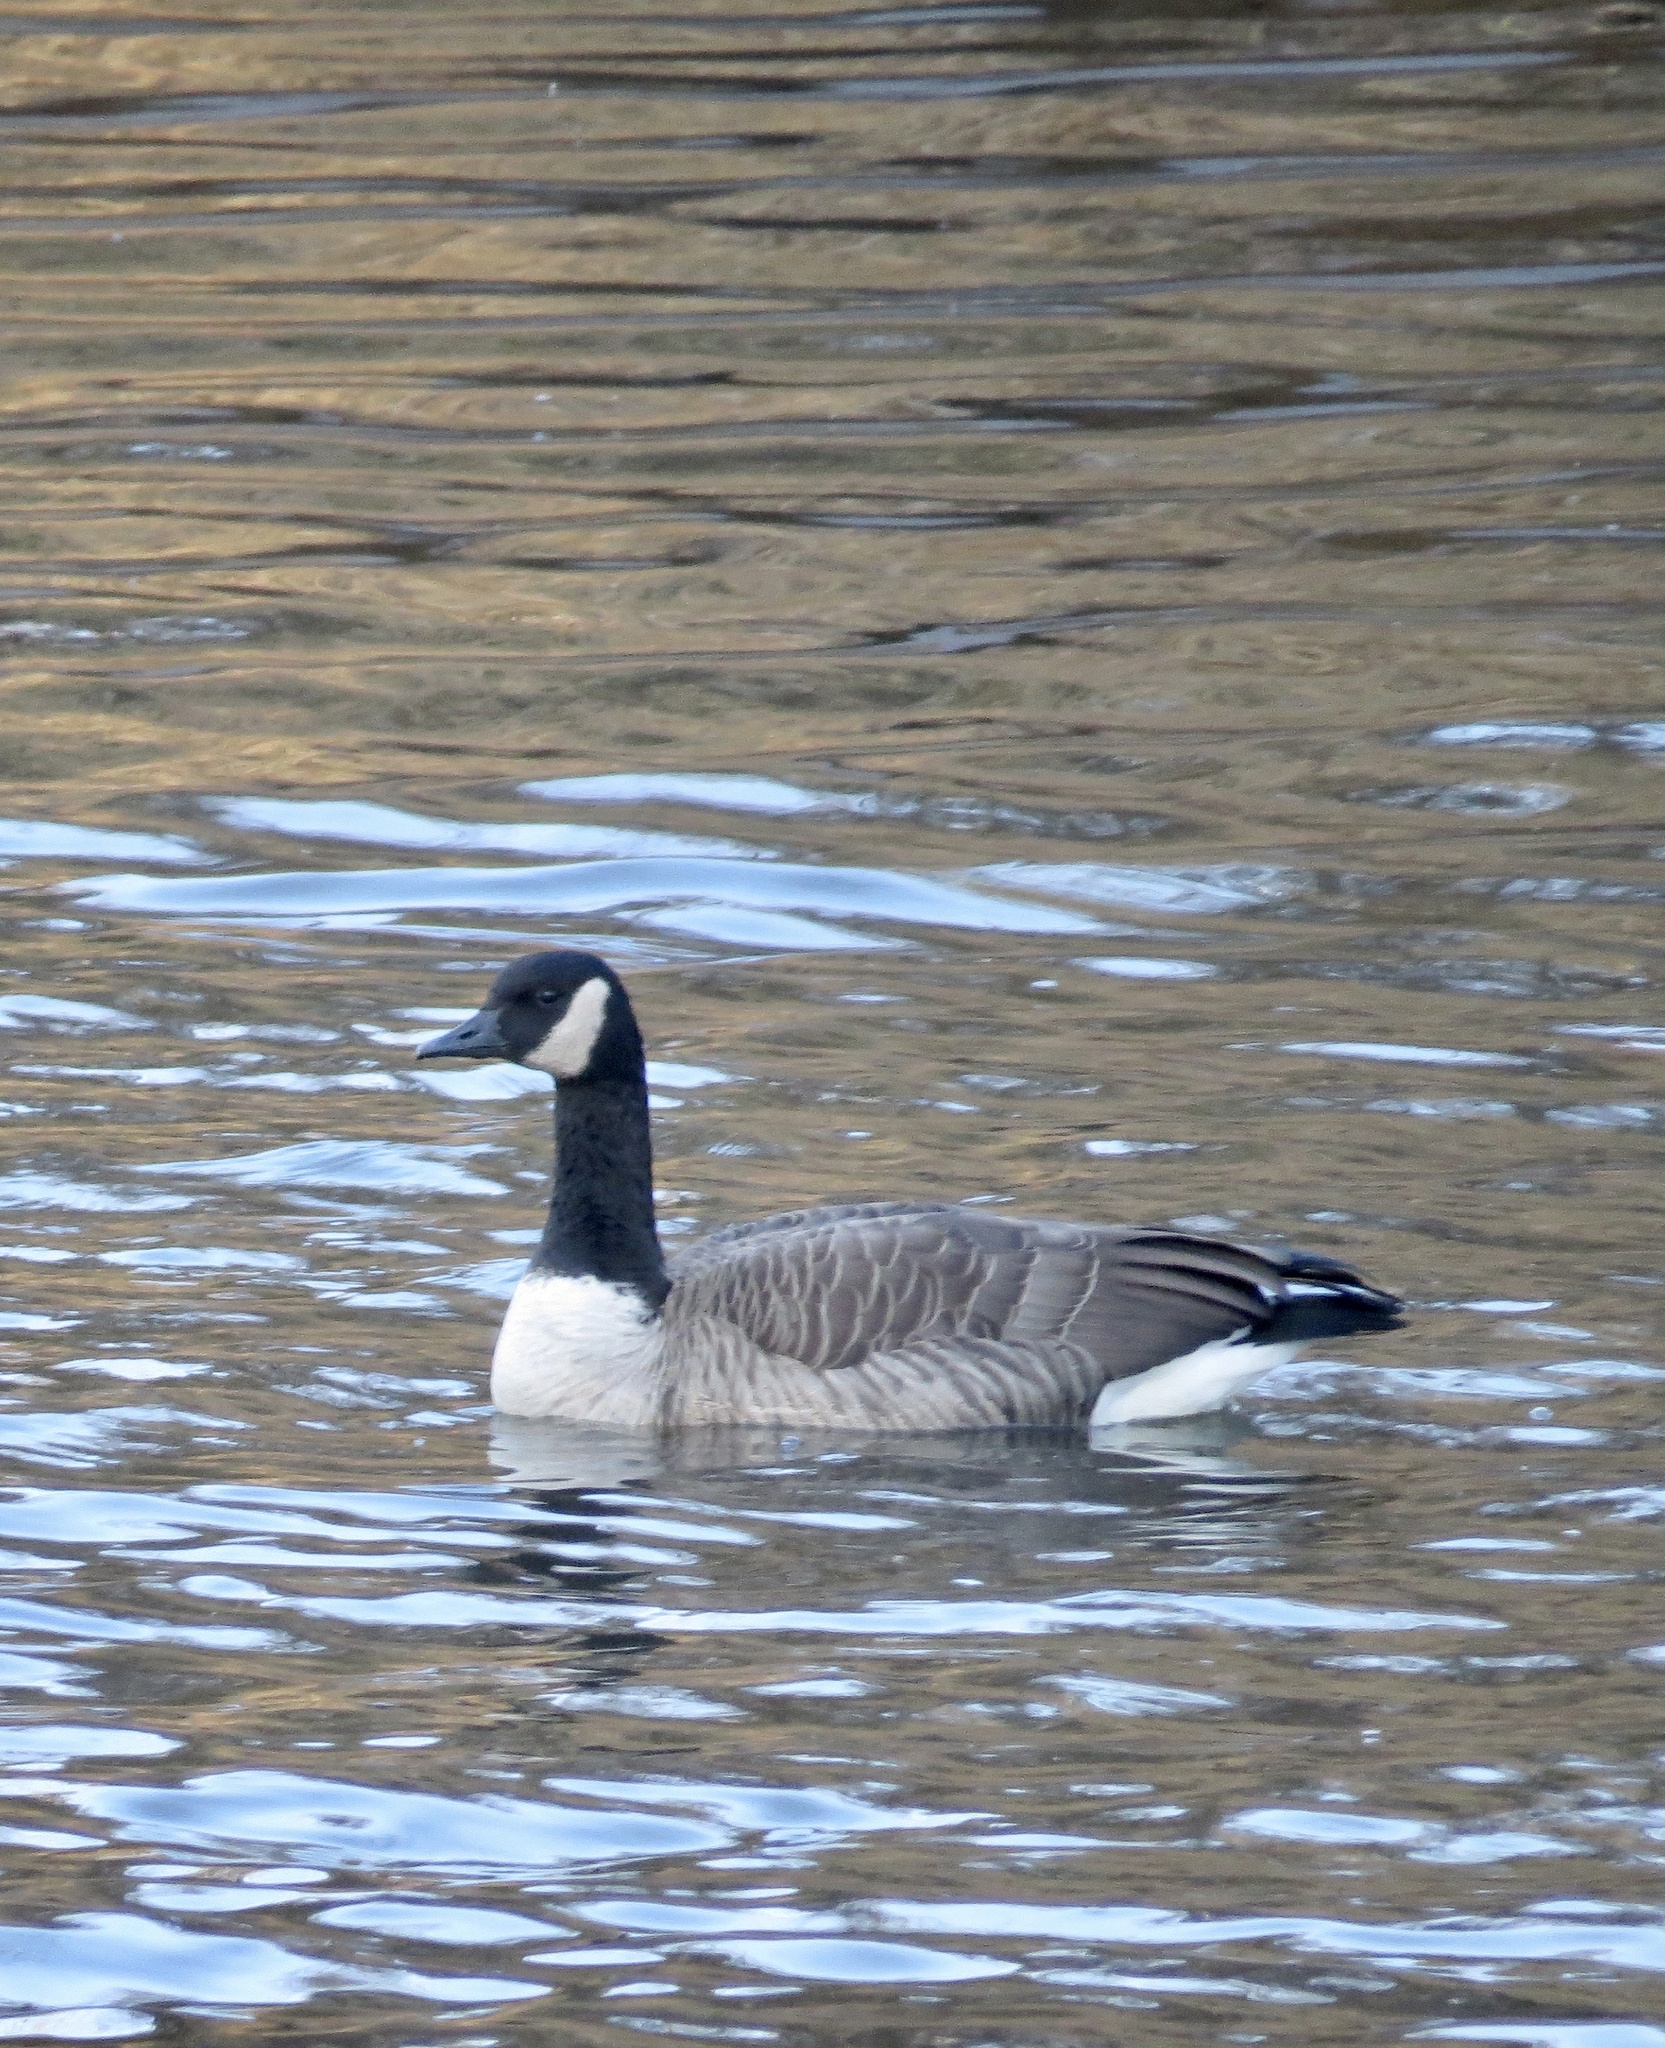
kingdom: Animalia
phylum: Chordata
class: Aves
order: Anseriformes
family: Anatidae
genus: Branta
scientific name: Branta canadensis
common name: Canada goose
